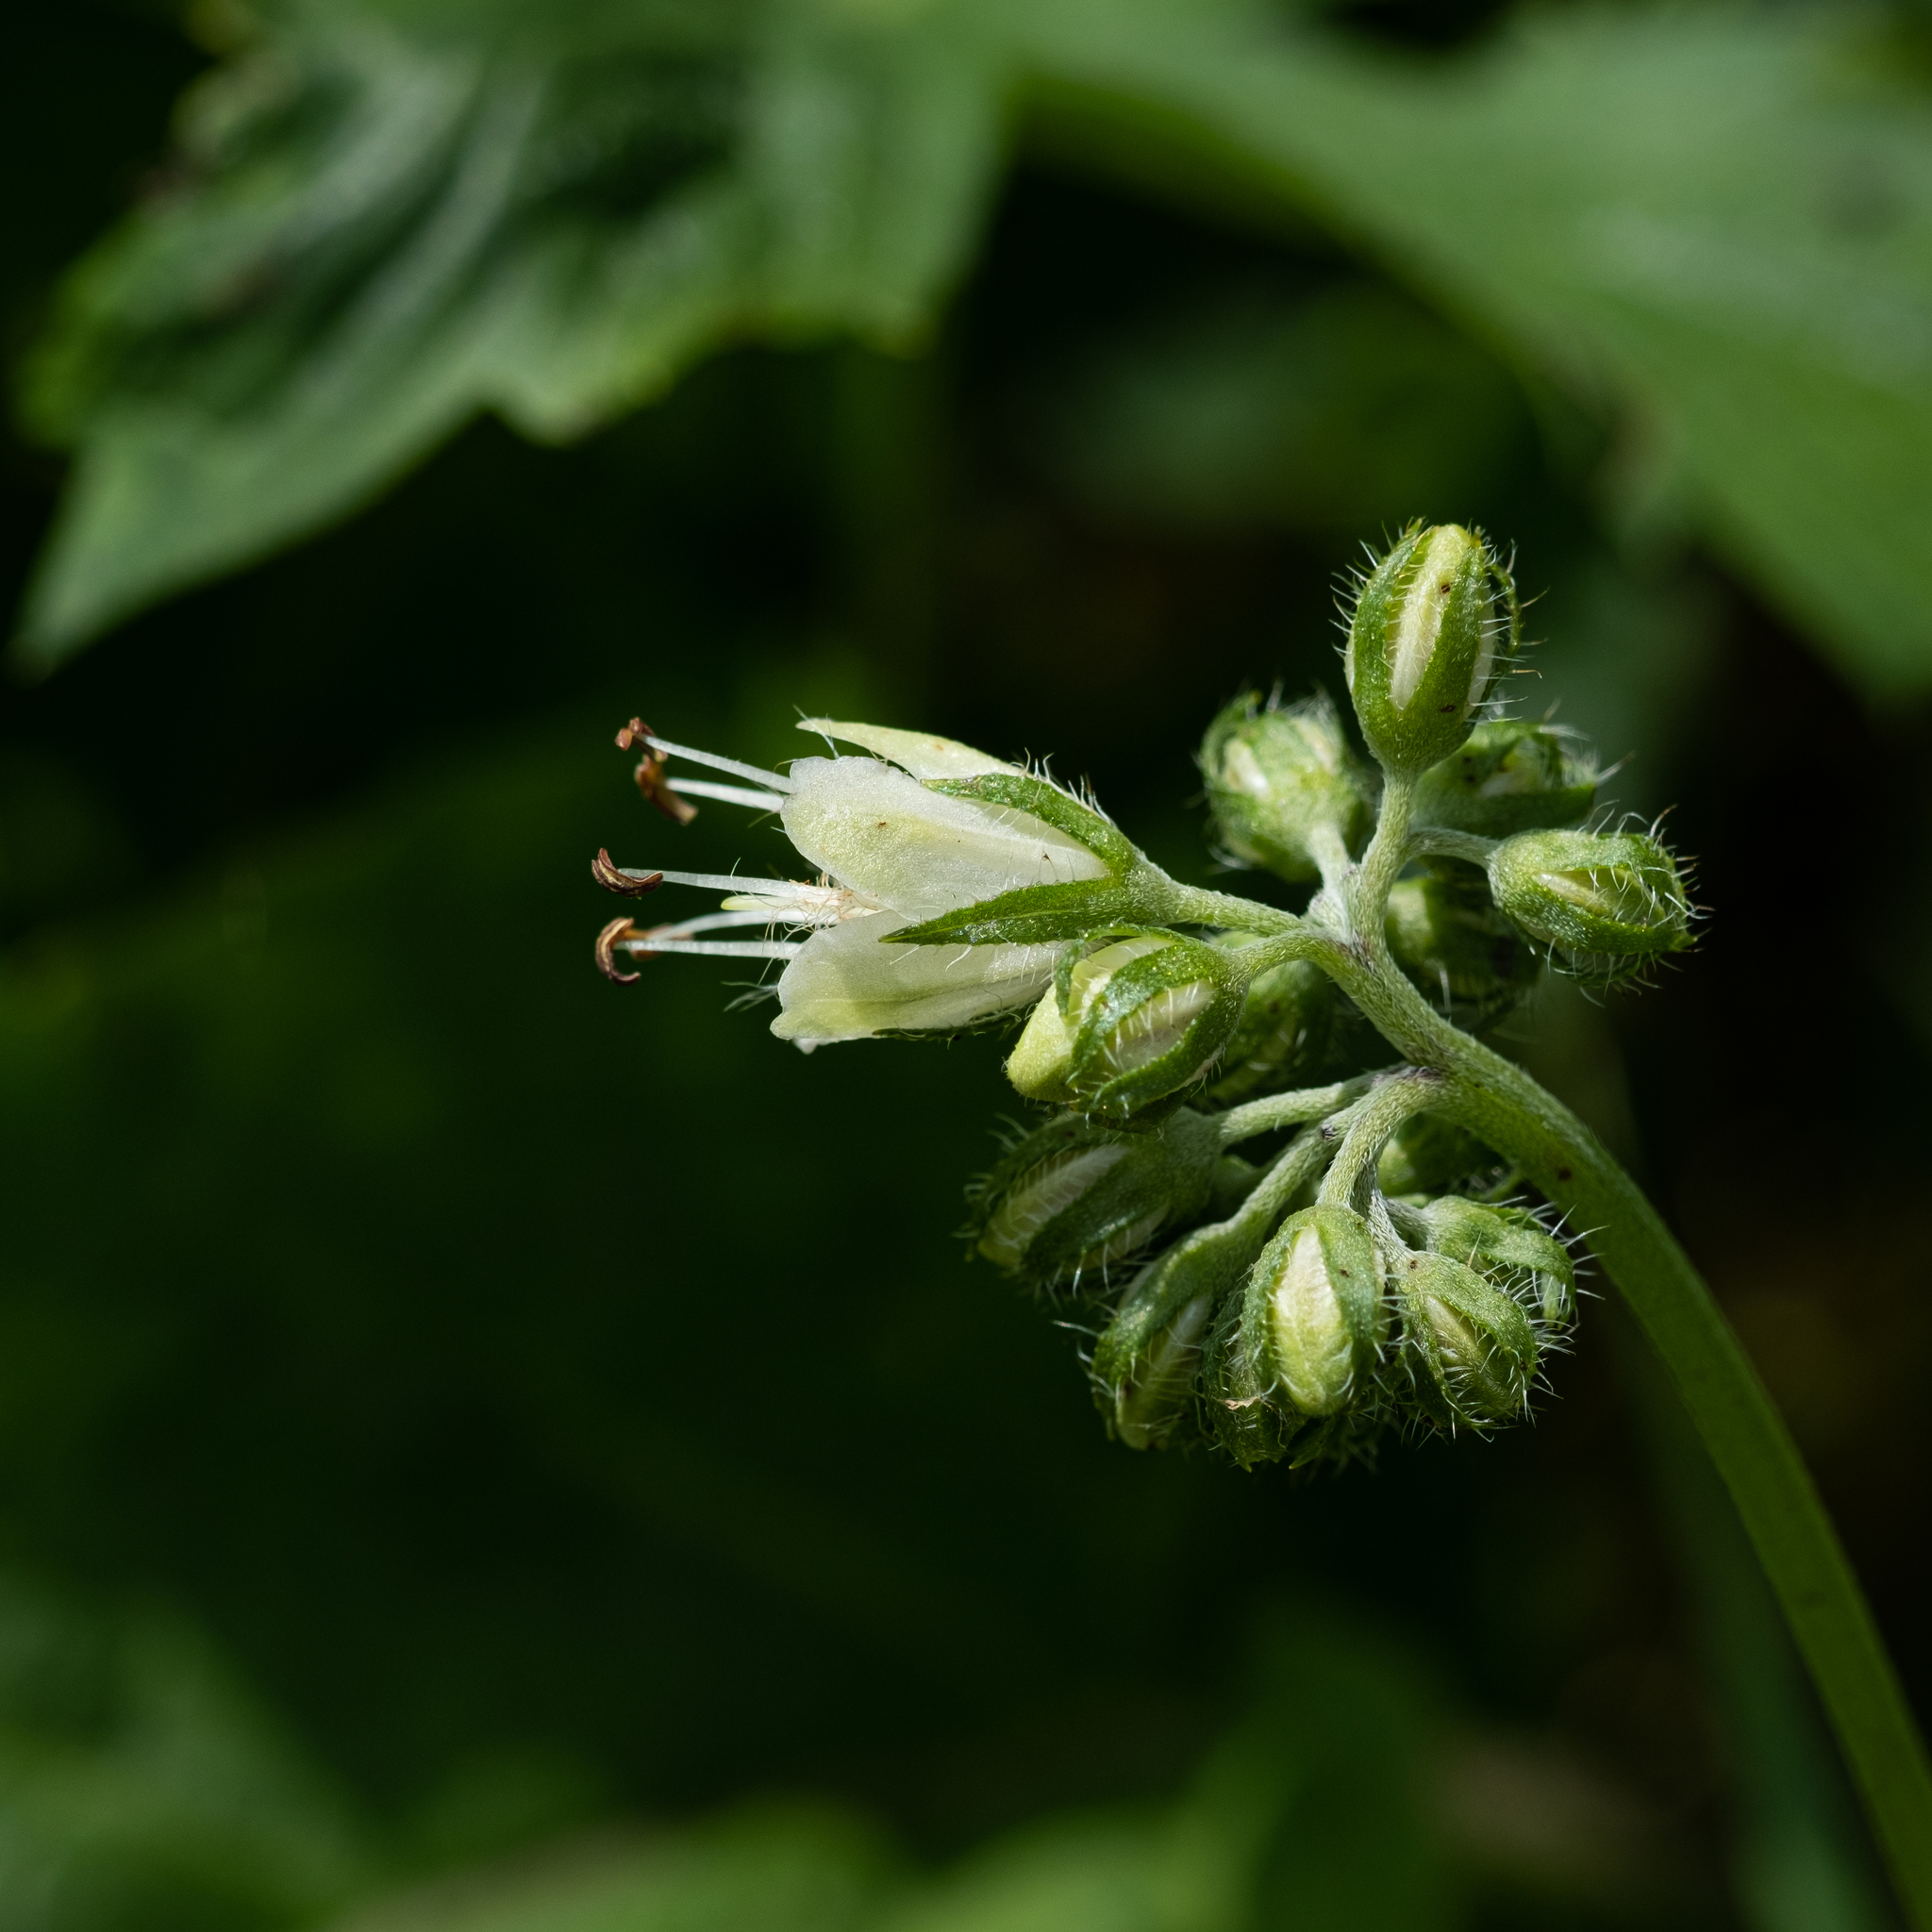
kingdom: Plantae
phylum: Tracheophyta
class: Magnoliopsida
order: Boraginales
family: Hydrophyllaceae
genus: Hydrophyllum
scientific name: Hydrophyllum virginianum
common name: Virginia waterleaf
